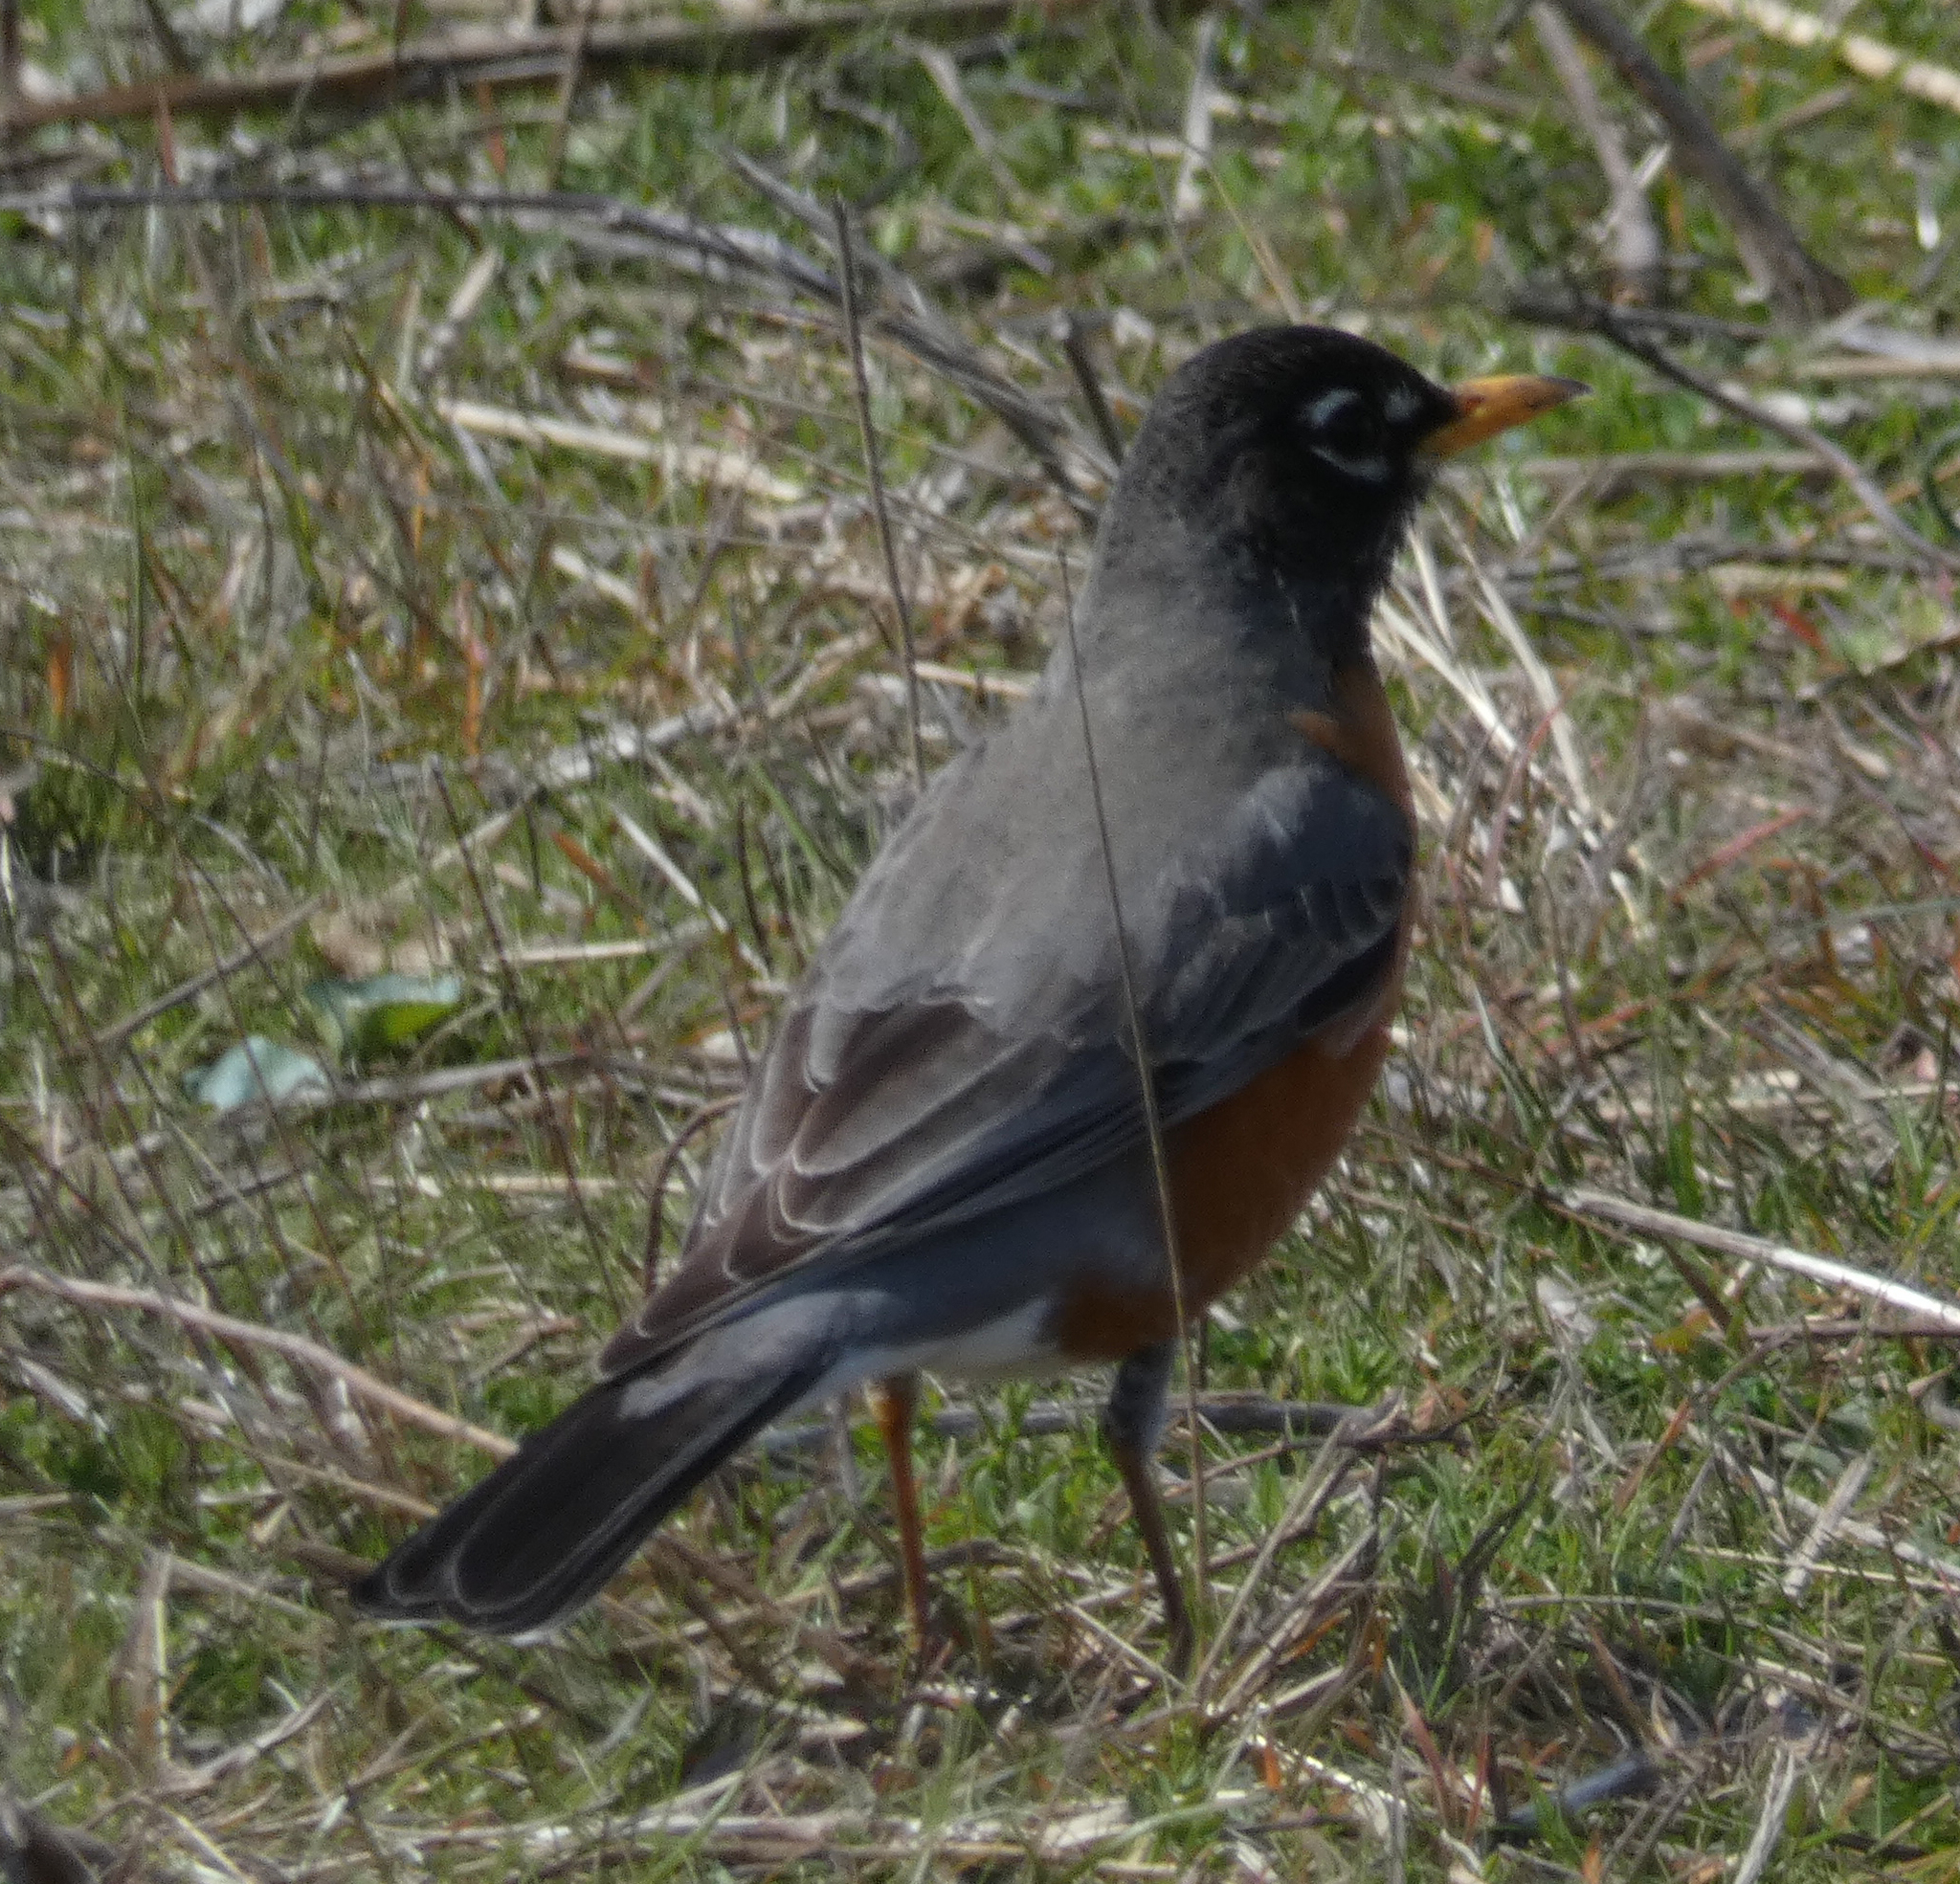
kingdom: Animalia
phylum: Chordata
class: Aves
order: Passeriformes
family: Turdidae
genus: Turdus
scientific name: Turdus migratorius
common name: American robin
